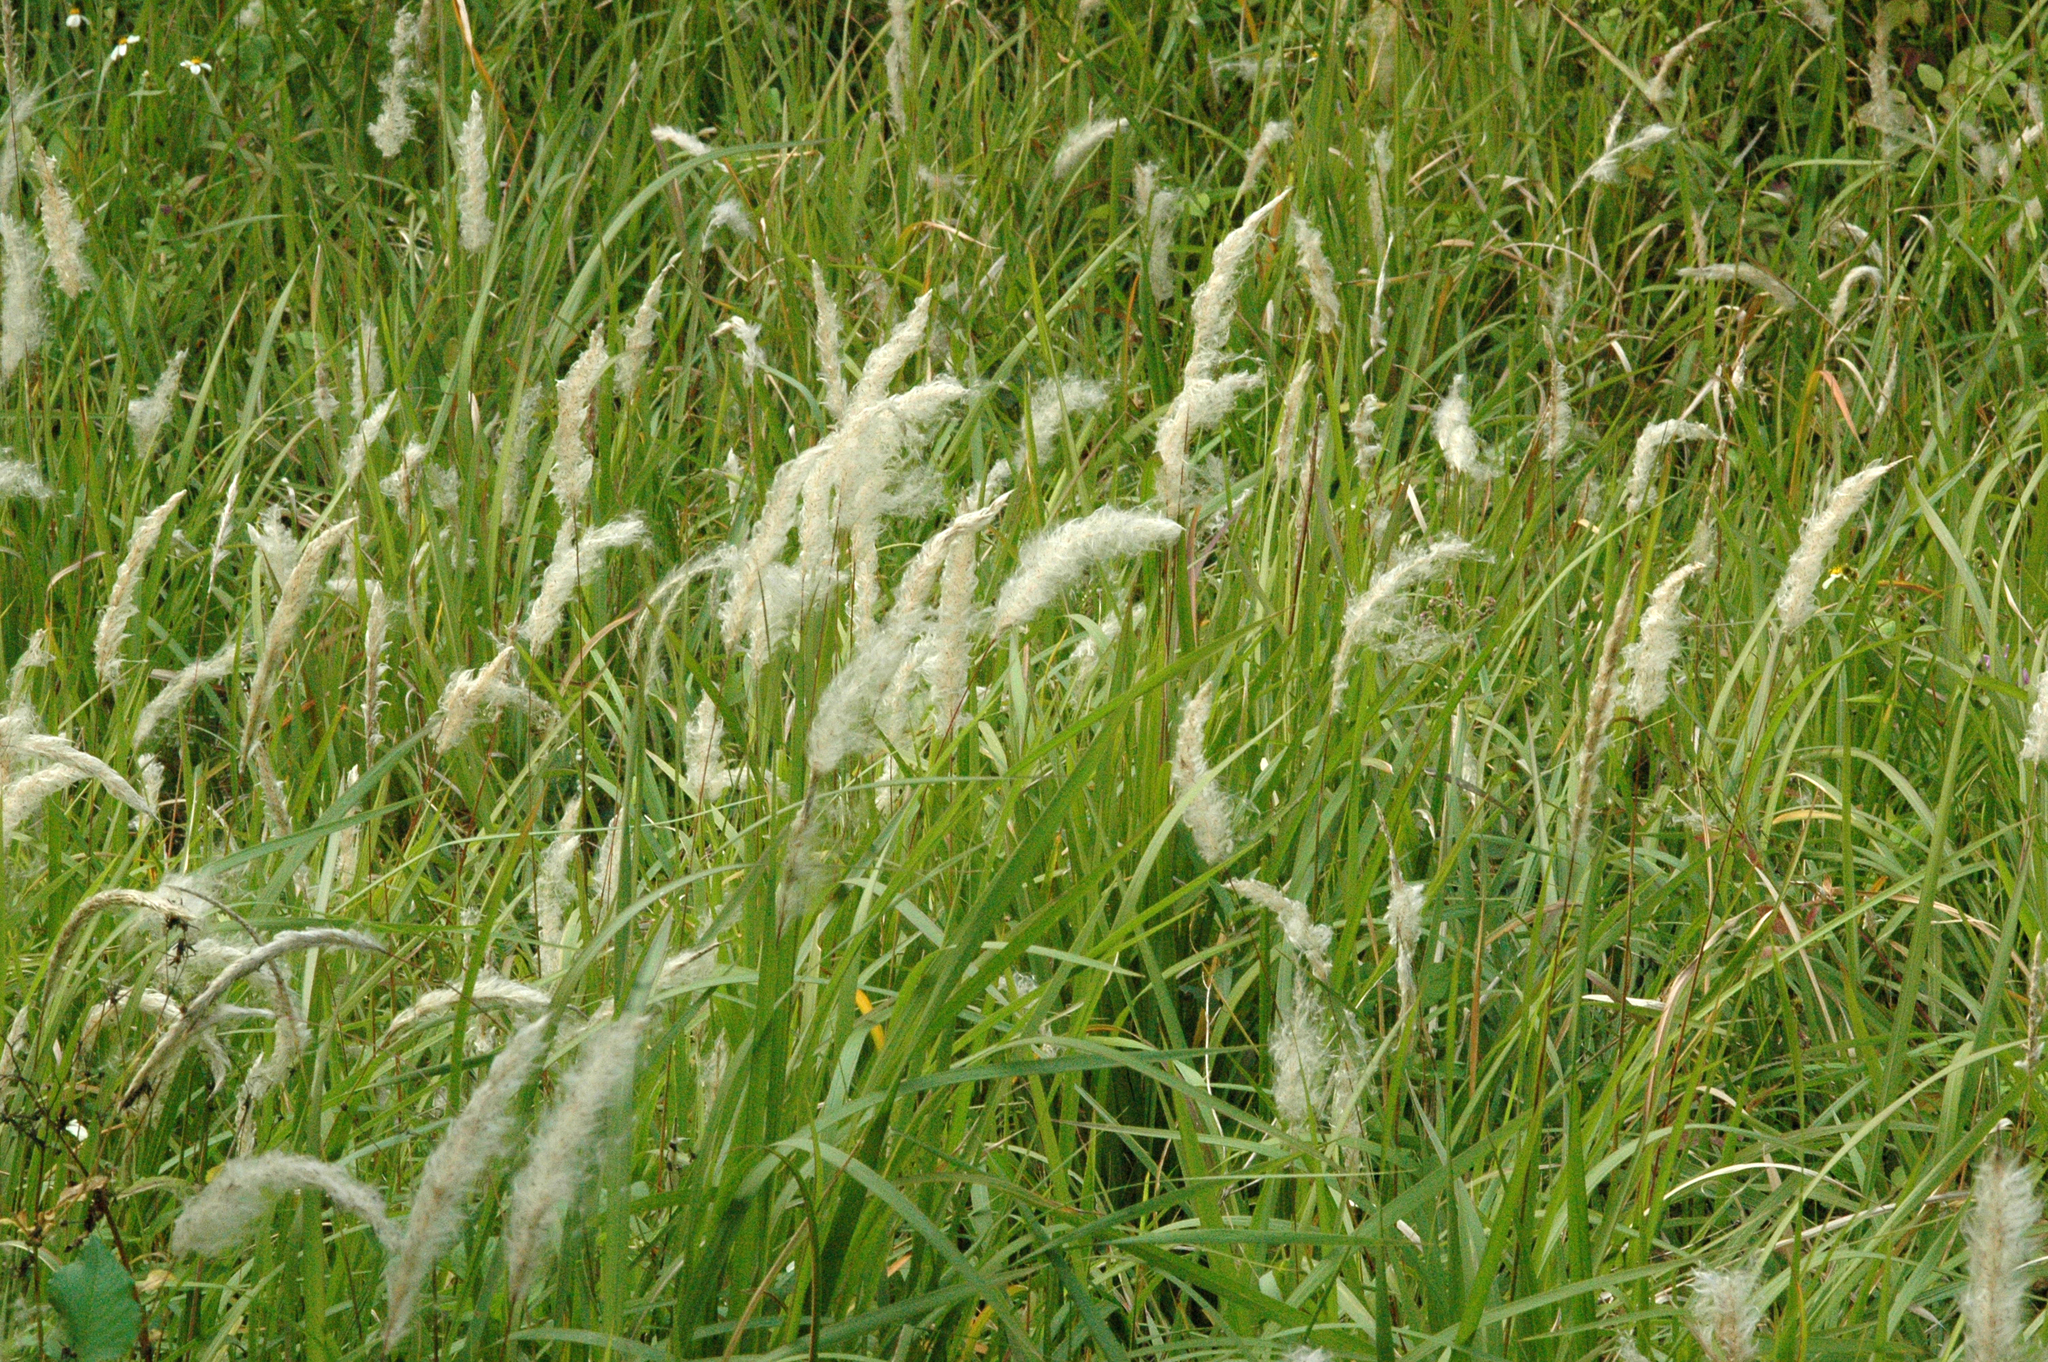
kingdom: Plantae
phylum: Tracheophyta
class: Liliopsida
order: Poales
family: Poaceae
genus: Imperata
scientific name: Imperata cylindrica
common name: Cogongrass
